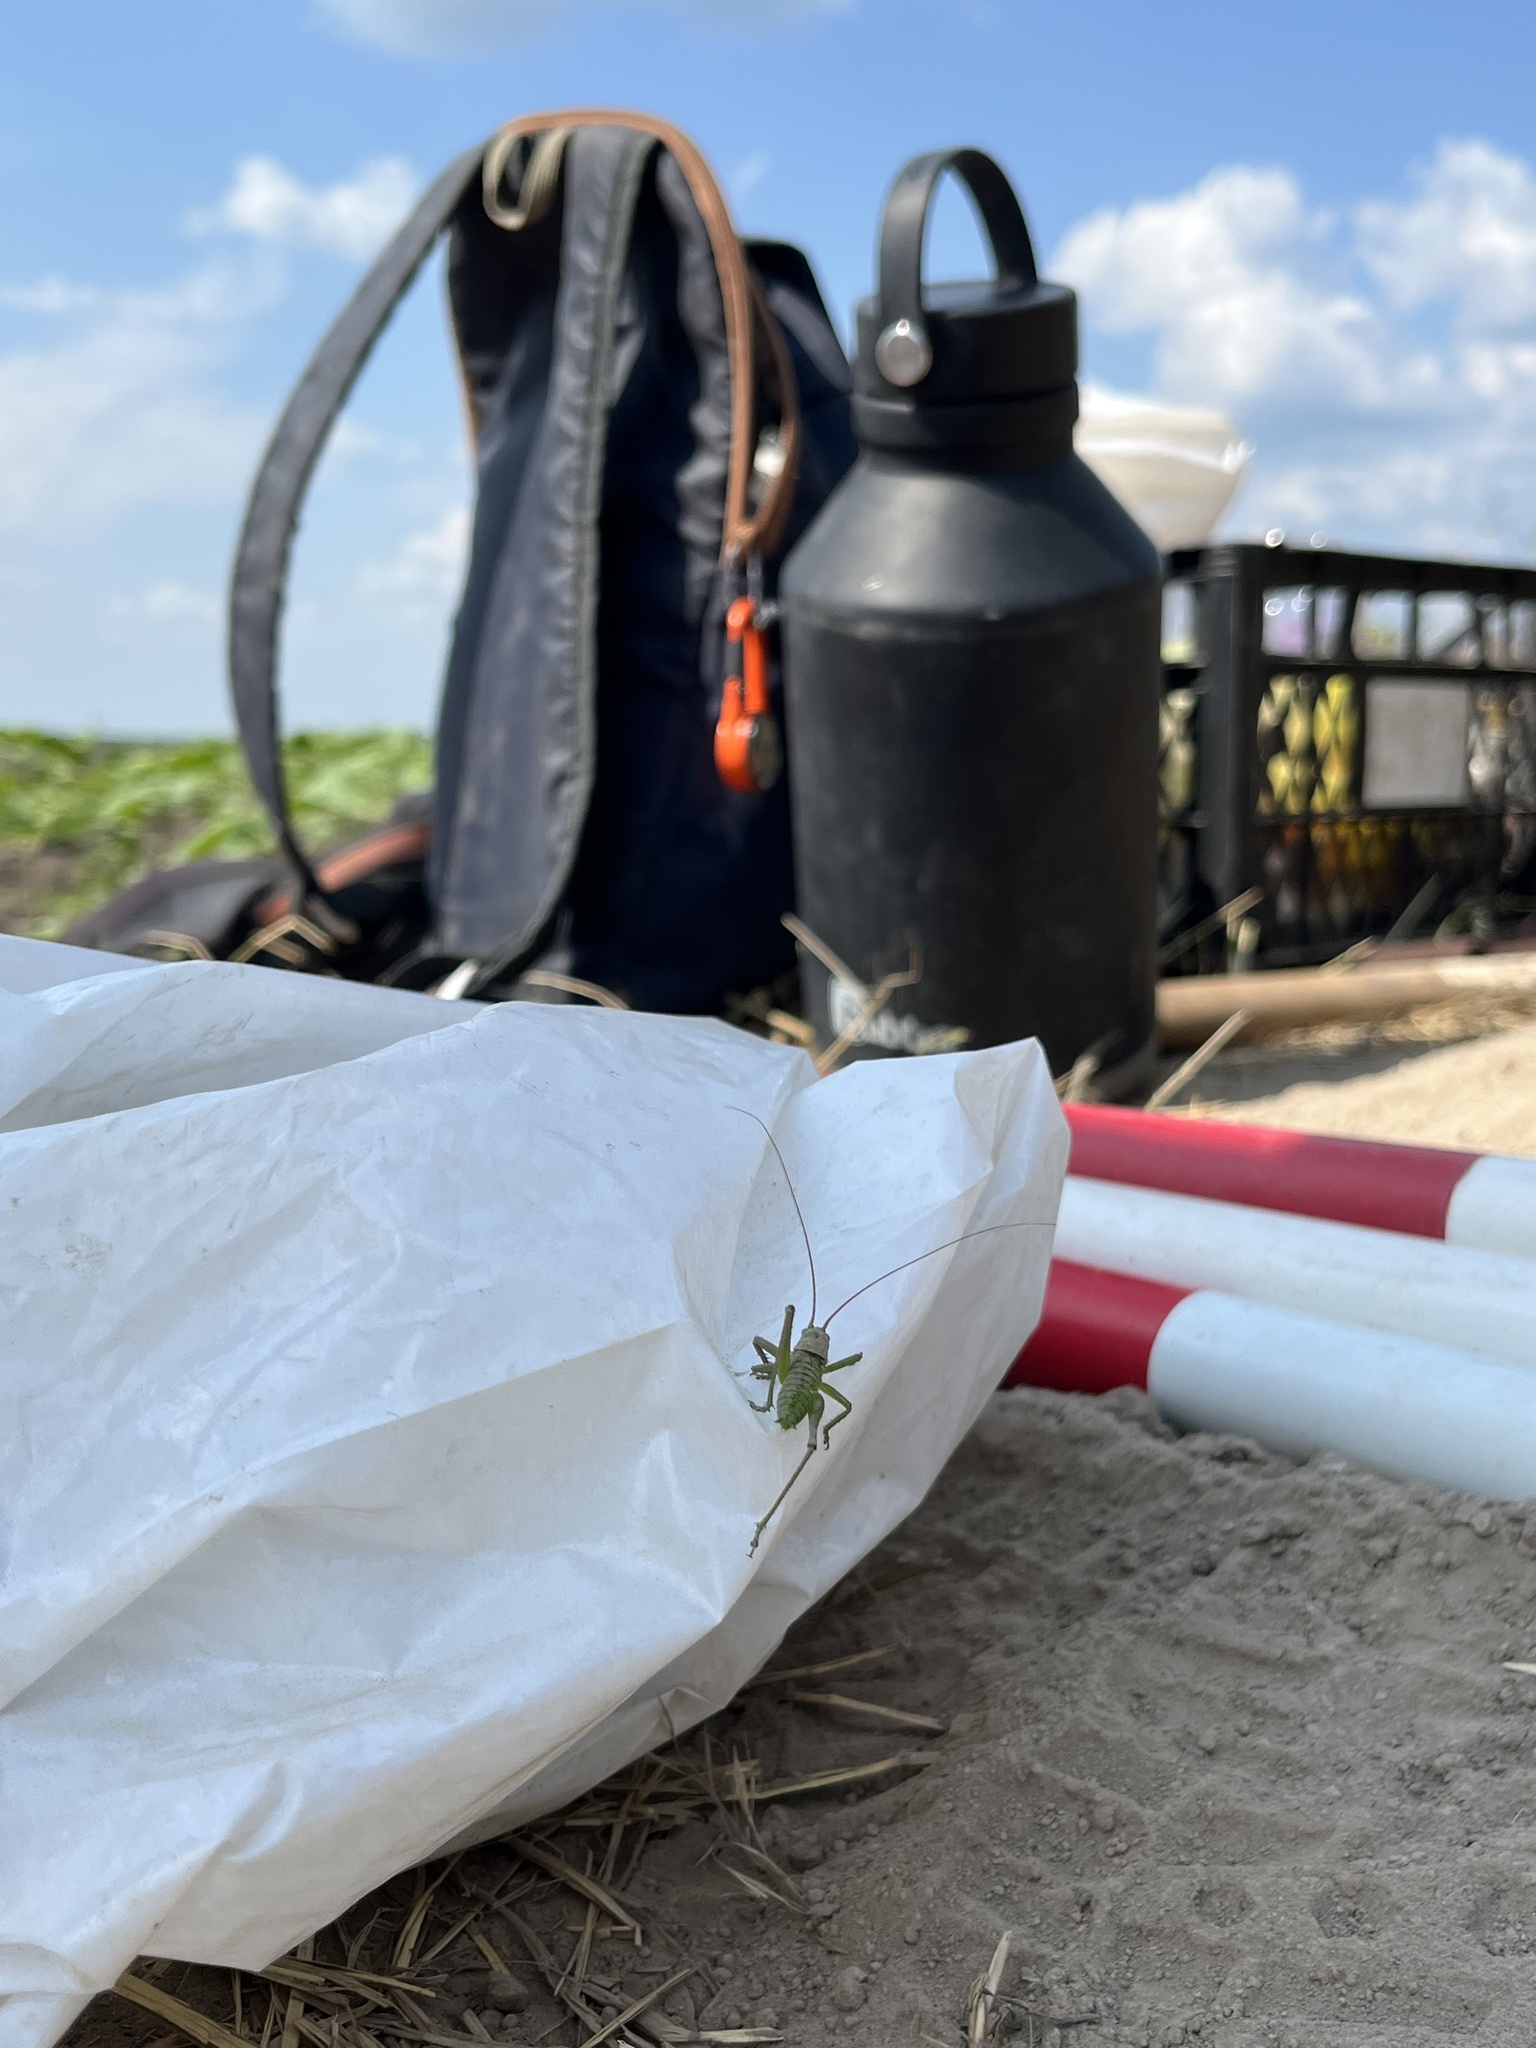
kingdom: Animalia
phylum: Arthropoda
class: Insecta
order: Orthoptera
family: Tettigoniidae
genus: Tettigonia
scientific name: Tettigonia viridissima
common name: Great green bush-cricket
